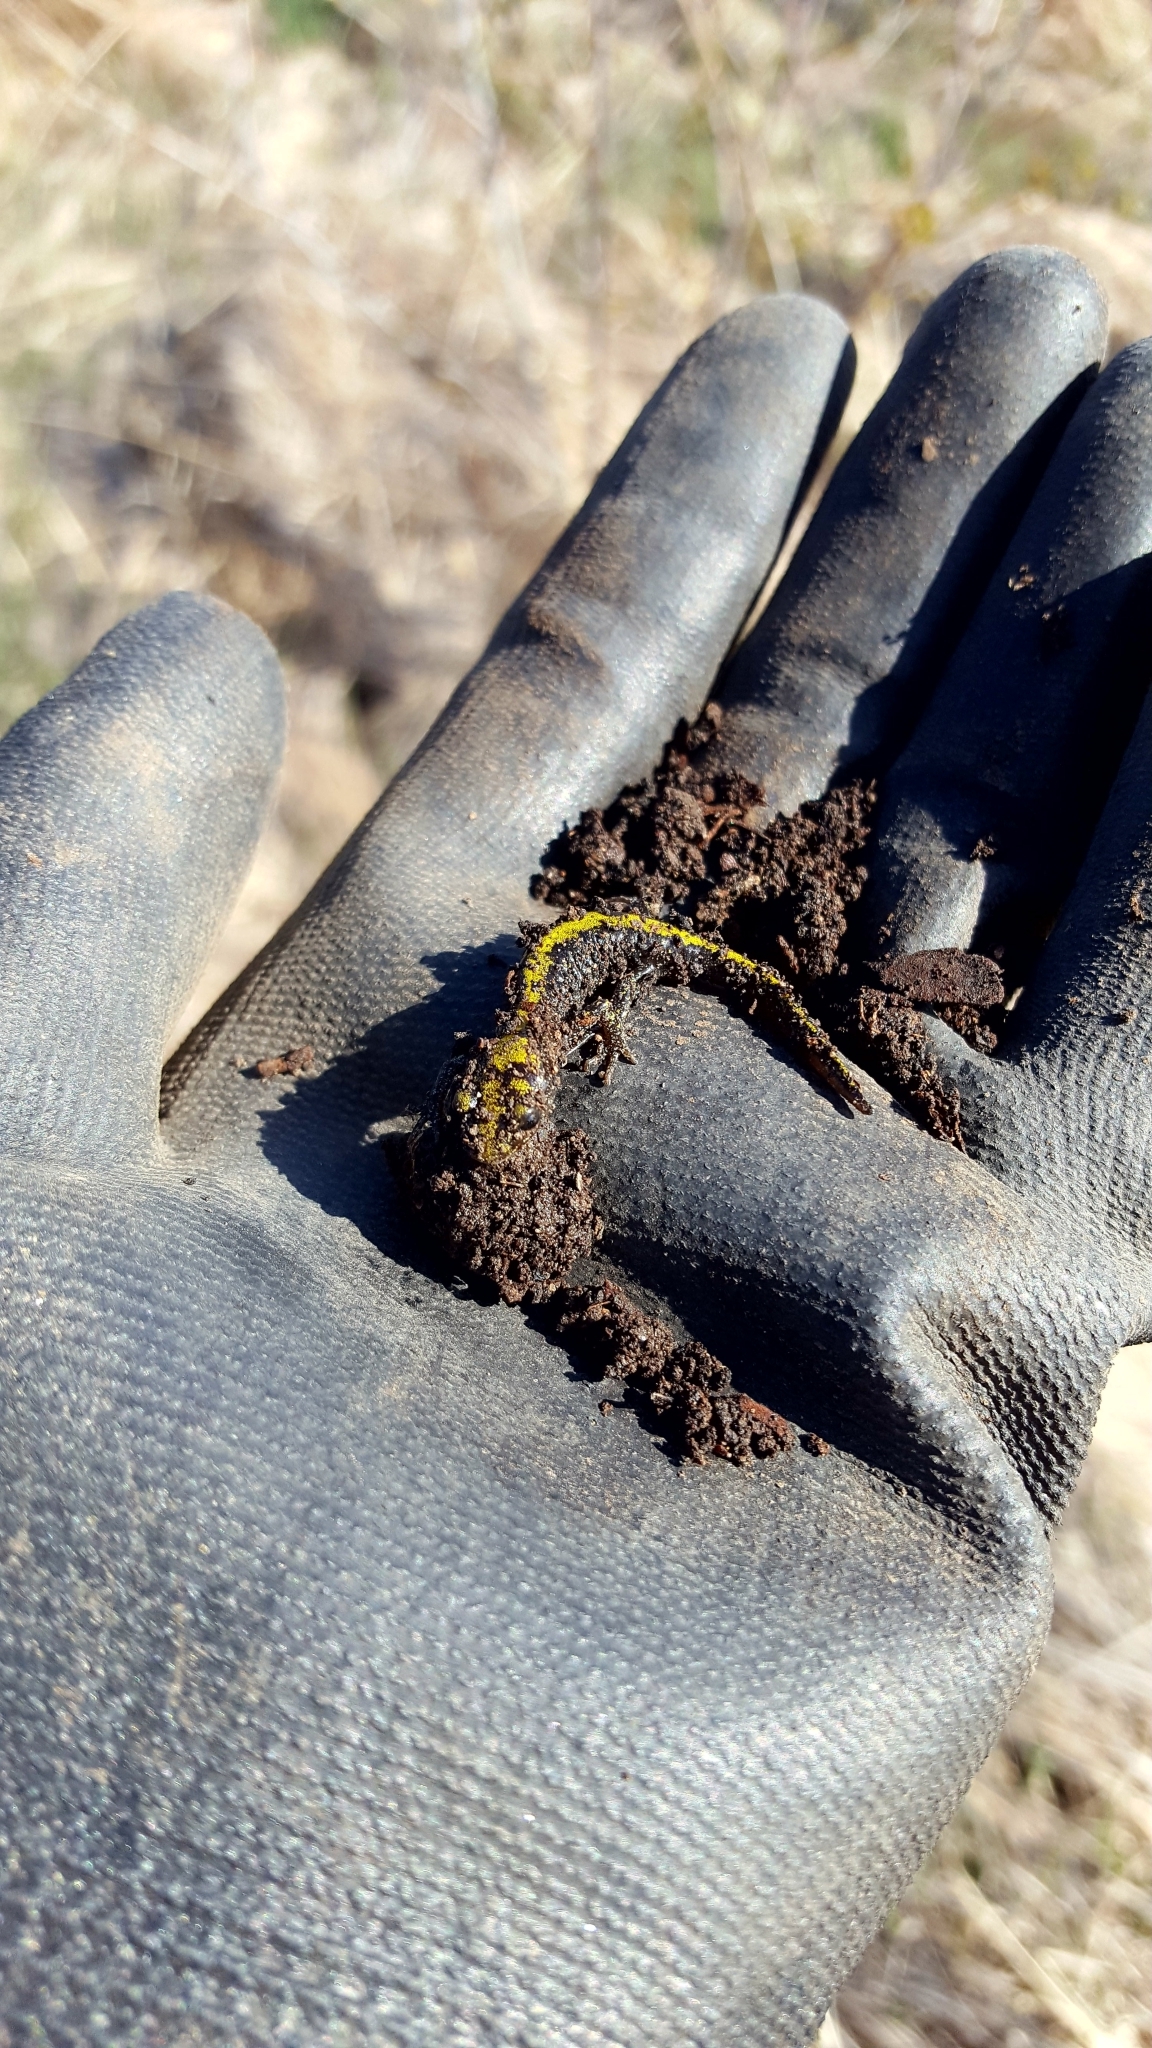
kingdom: Animalia
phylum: Chordata
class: Amphibia
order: Caudata
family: Ambystomatidae
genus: Ambystoma
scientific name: Ambystoma macrodactylum
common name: Long-toed salamander
